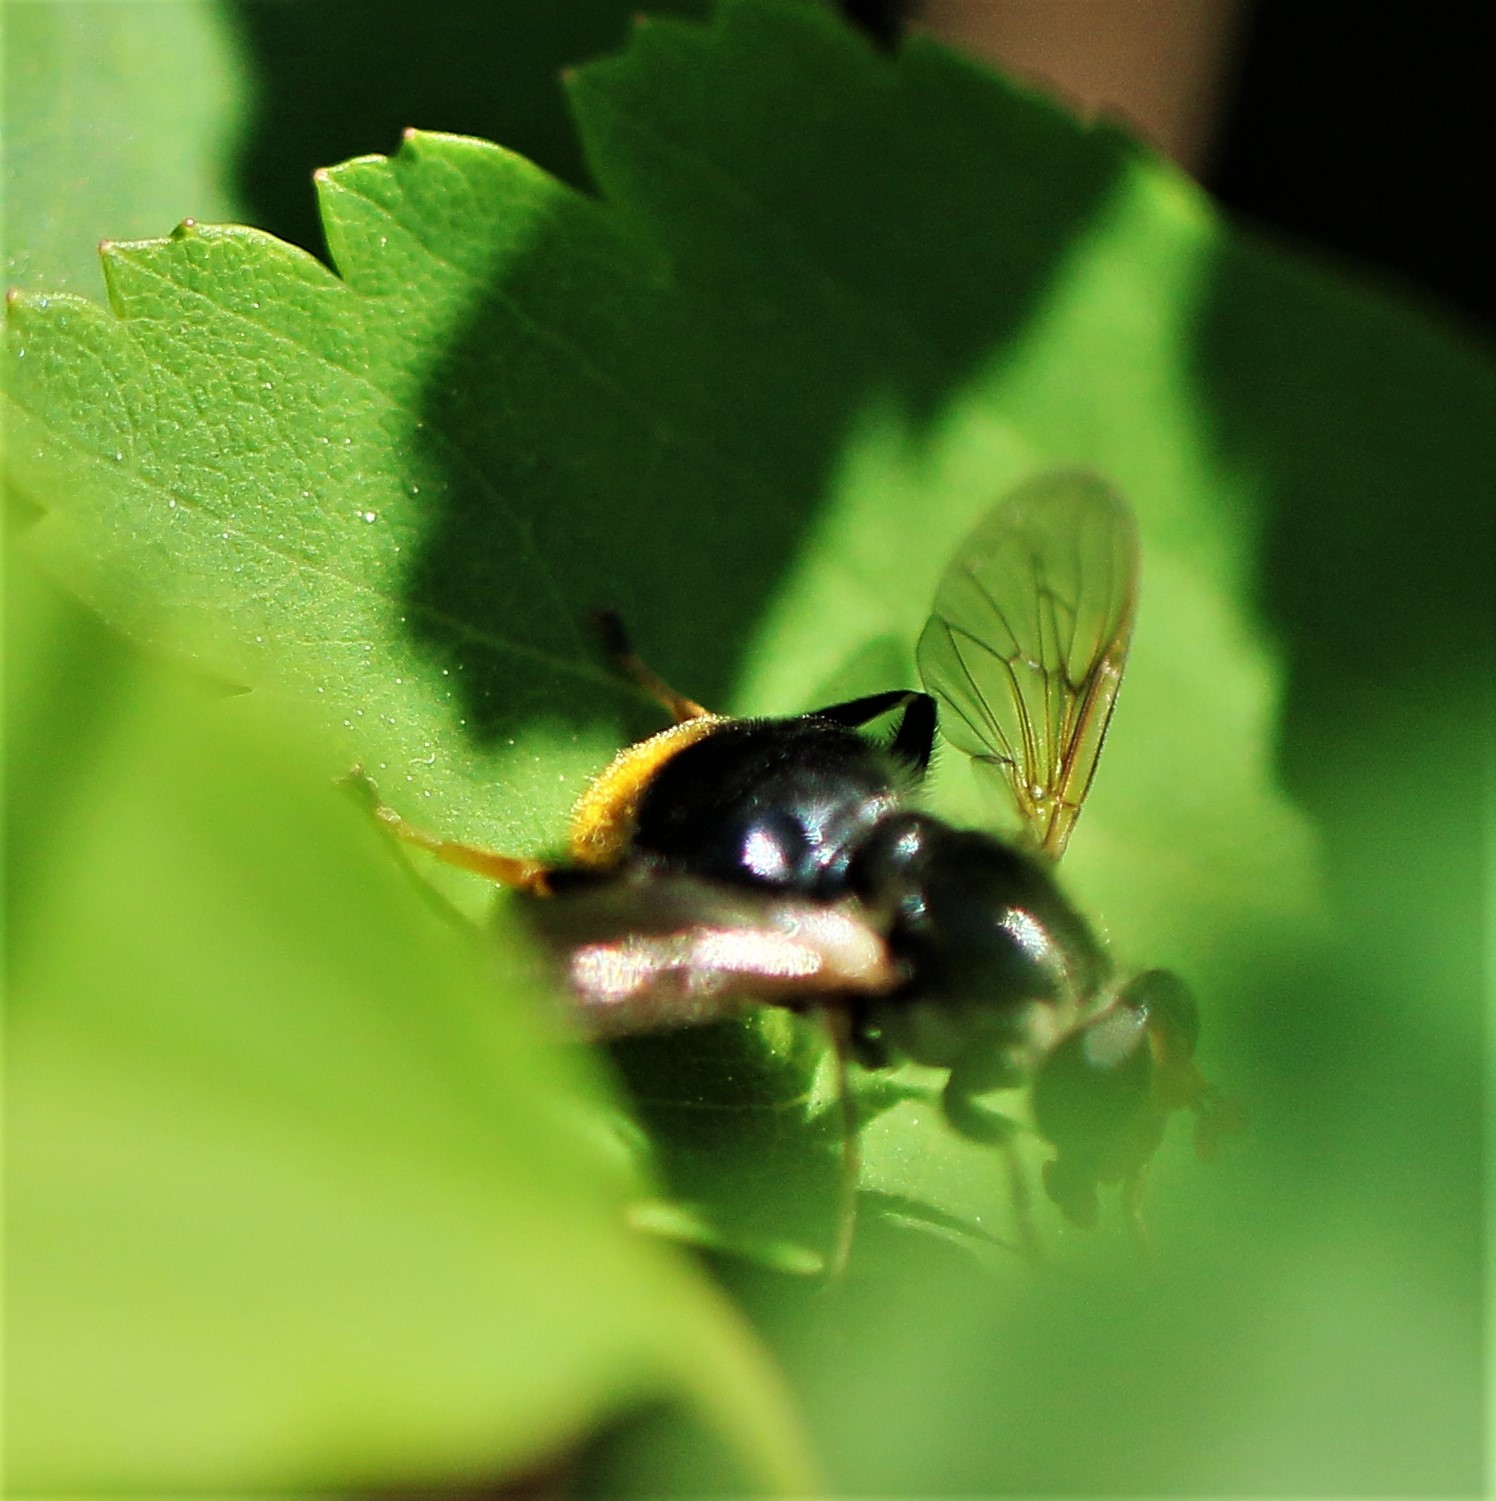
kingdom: Animalia
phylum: Arthropoda
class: Insecta
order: Diptera
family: Syrphidae
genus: Blera
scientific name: Blera analis
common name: Orange-tailed wood fly
